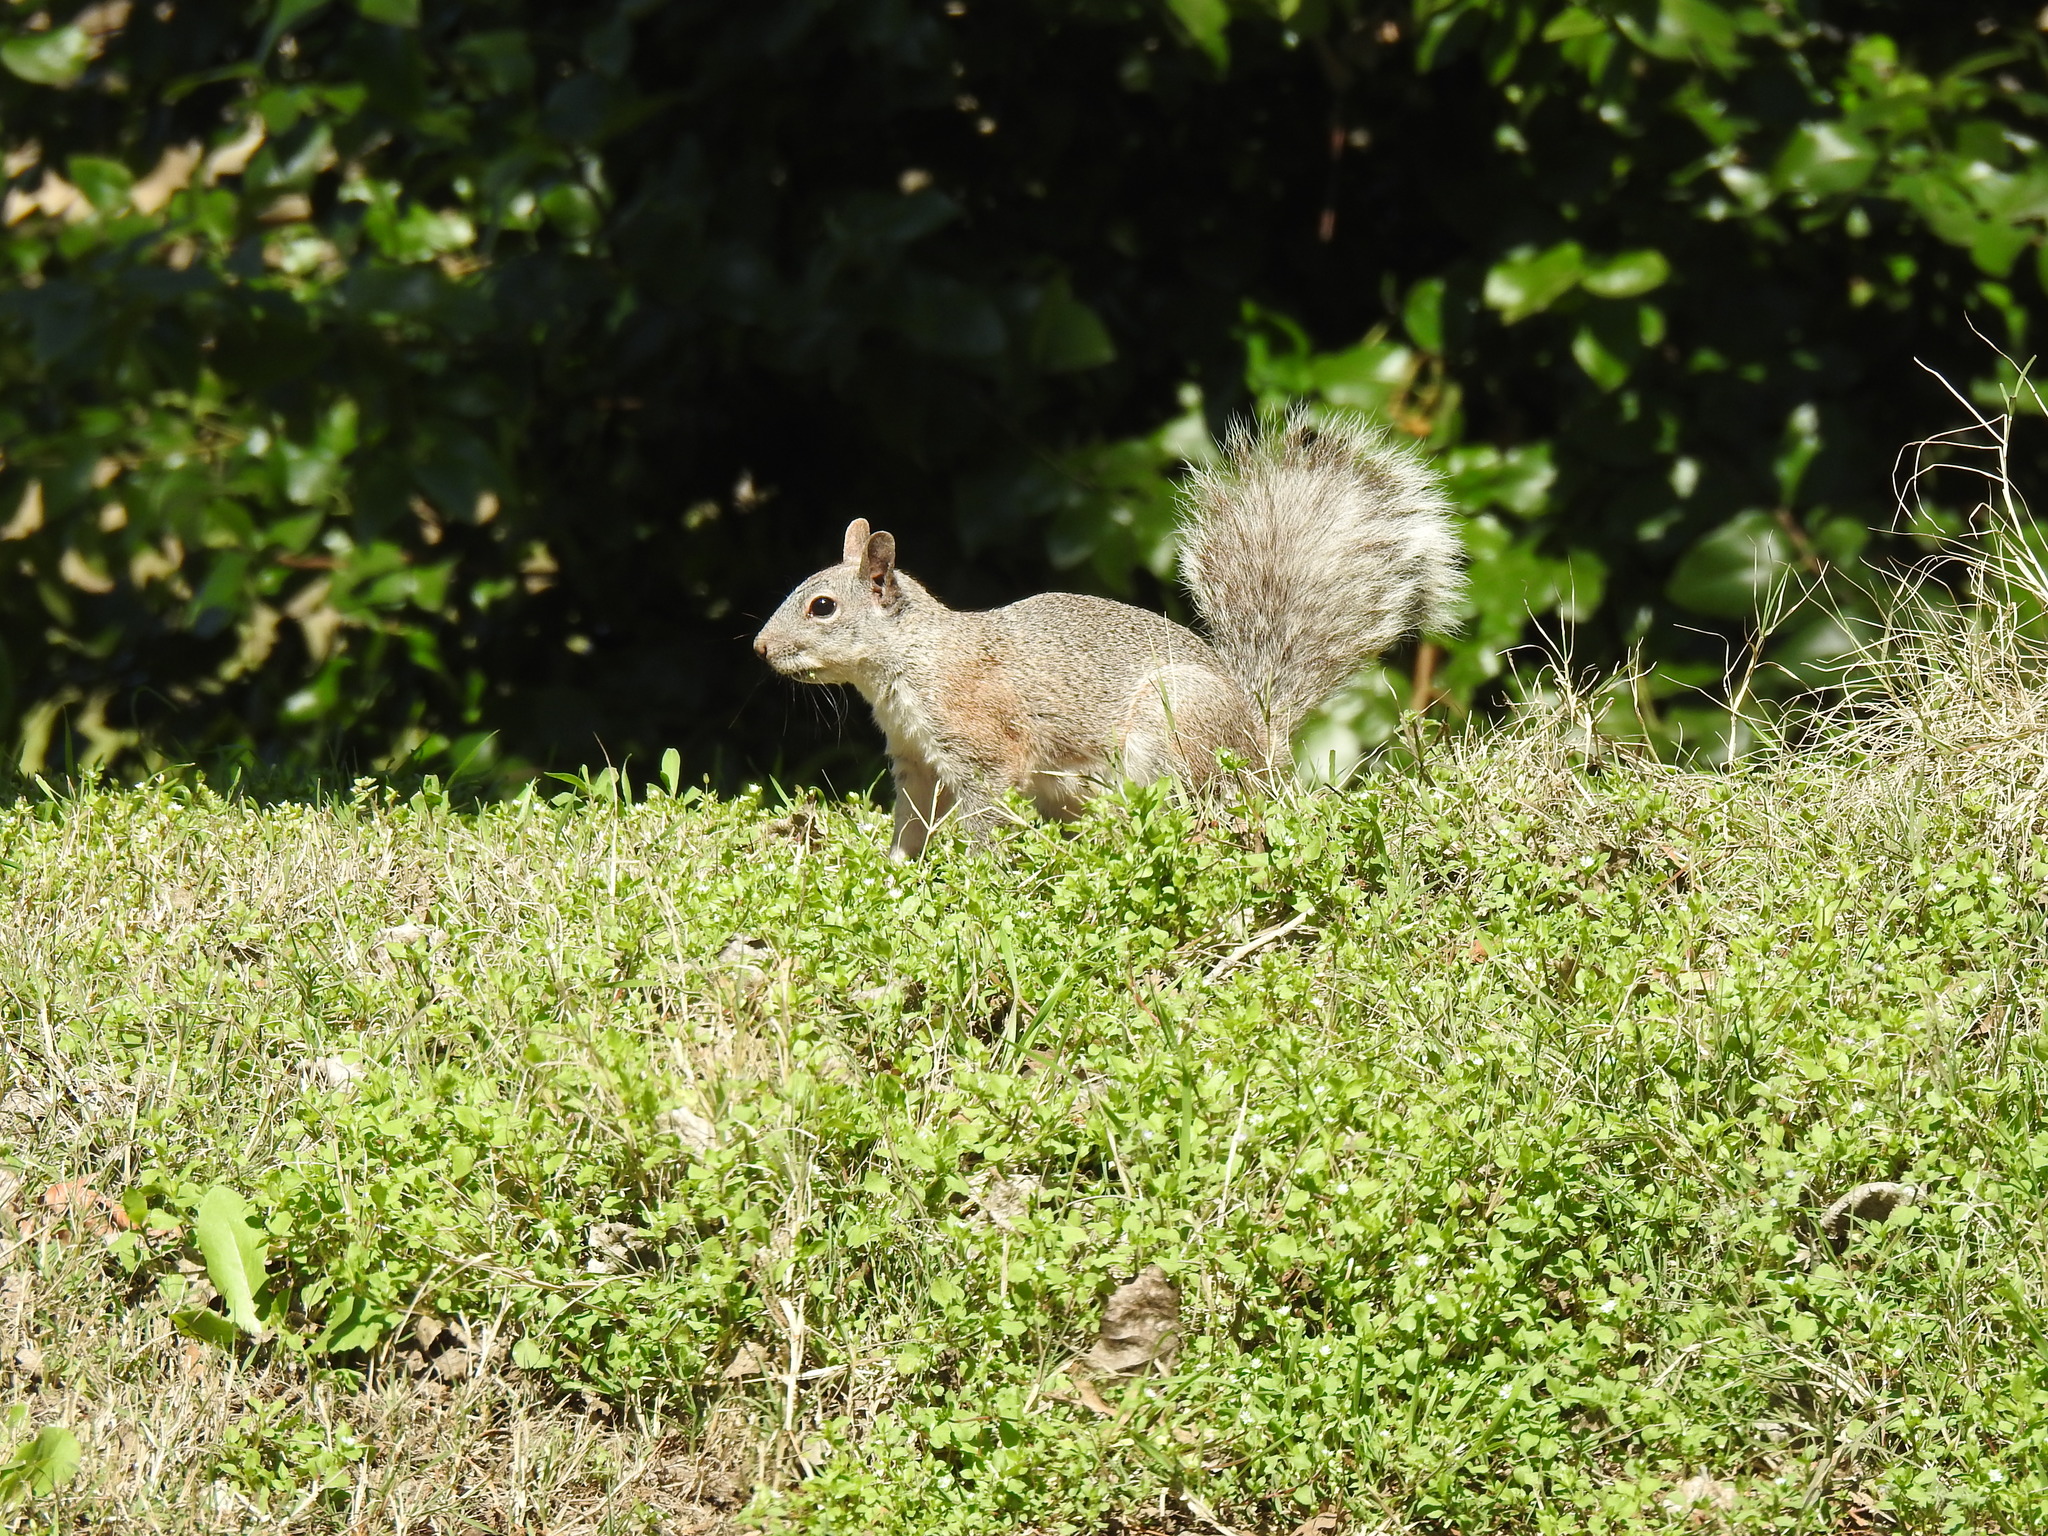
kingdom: Animalia
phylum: Chordata
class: Mammalia
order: Rodentia
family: Sciuridae
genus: Sciurus
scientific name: Sciurus griseus
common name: Western gray squirrel
